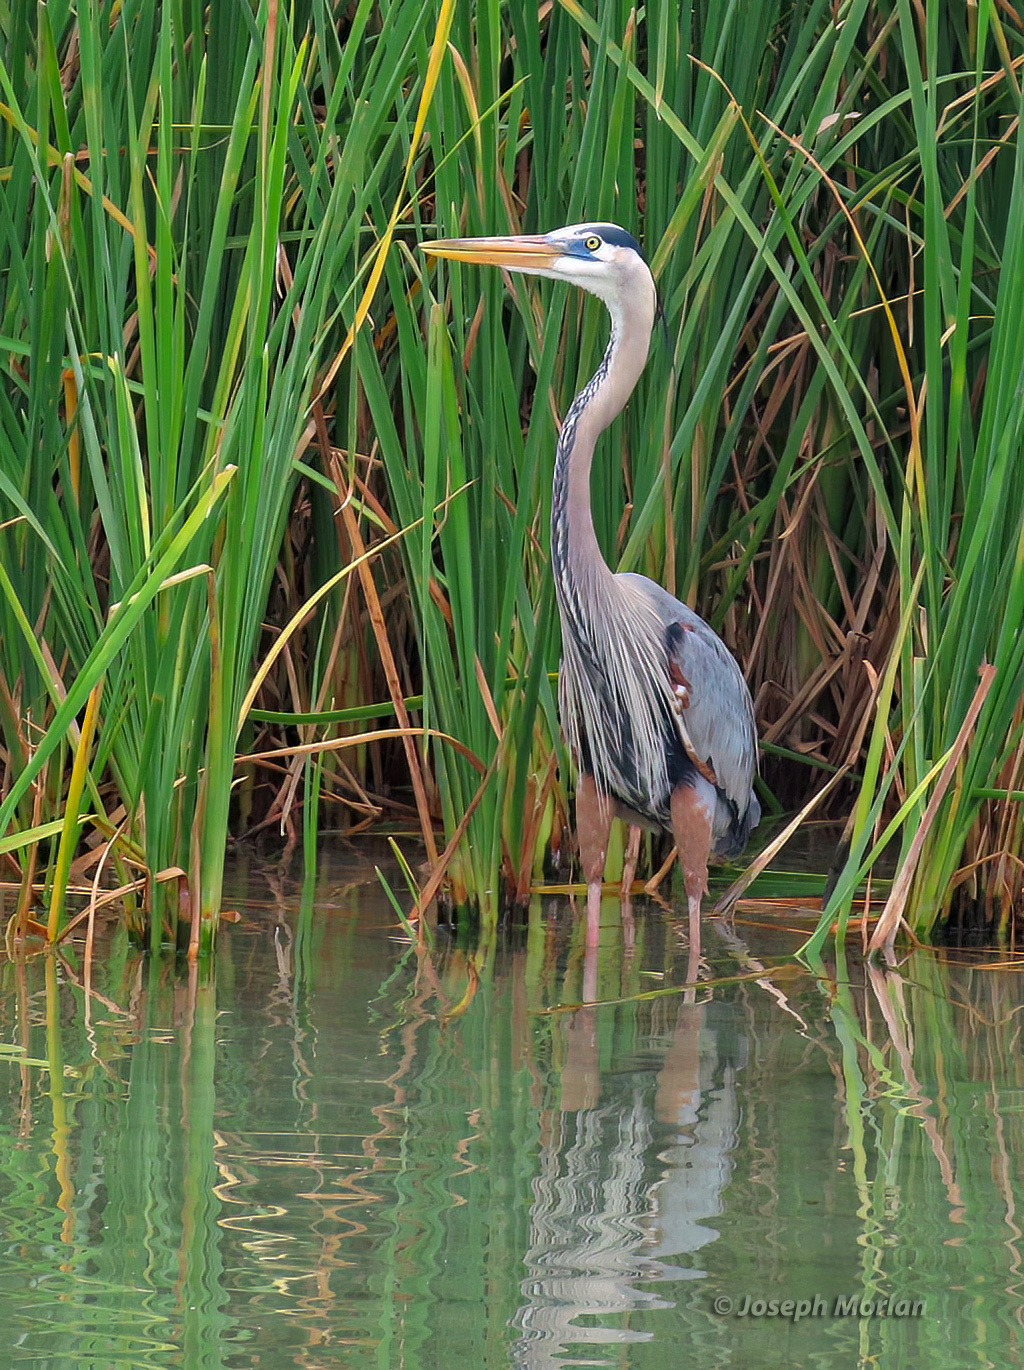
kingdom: Animalia
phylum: Chordata
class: Aves
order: Pelecaniformes
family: Ardeidae
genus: Ardea
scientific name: Ardea herodias
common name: Great blue heron
